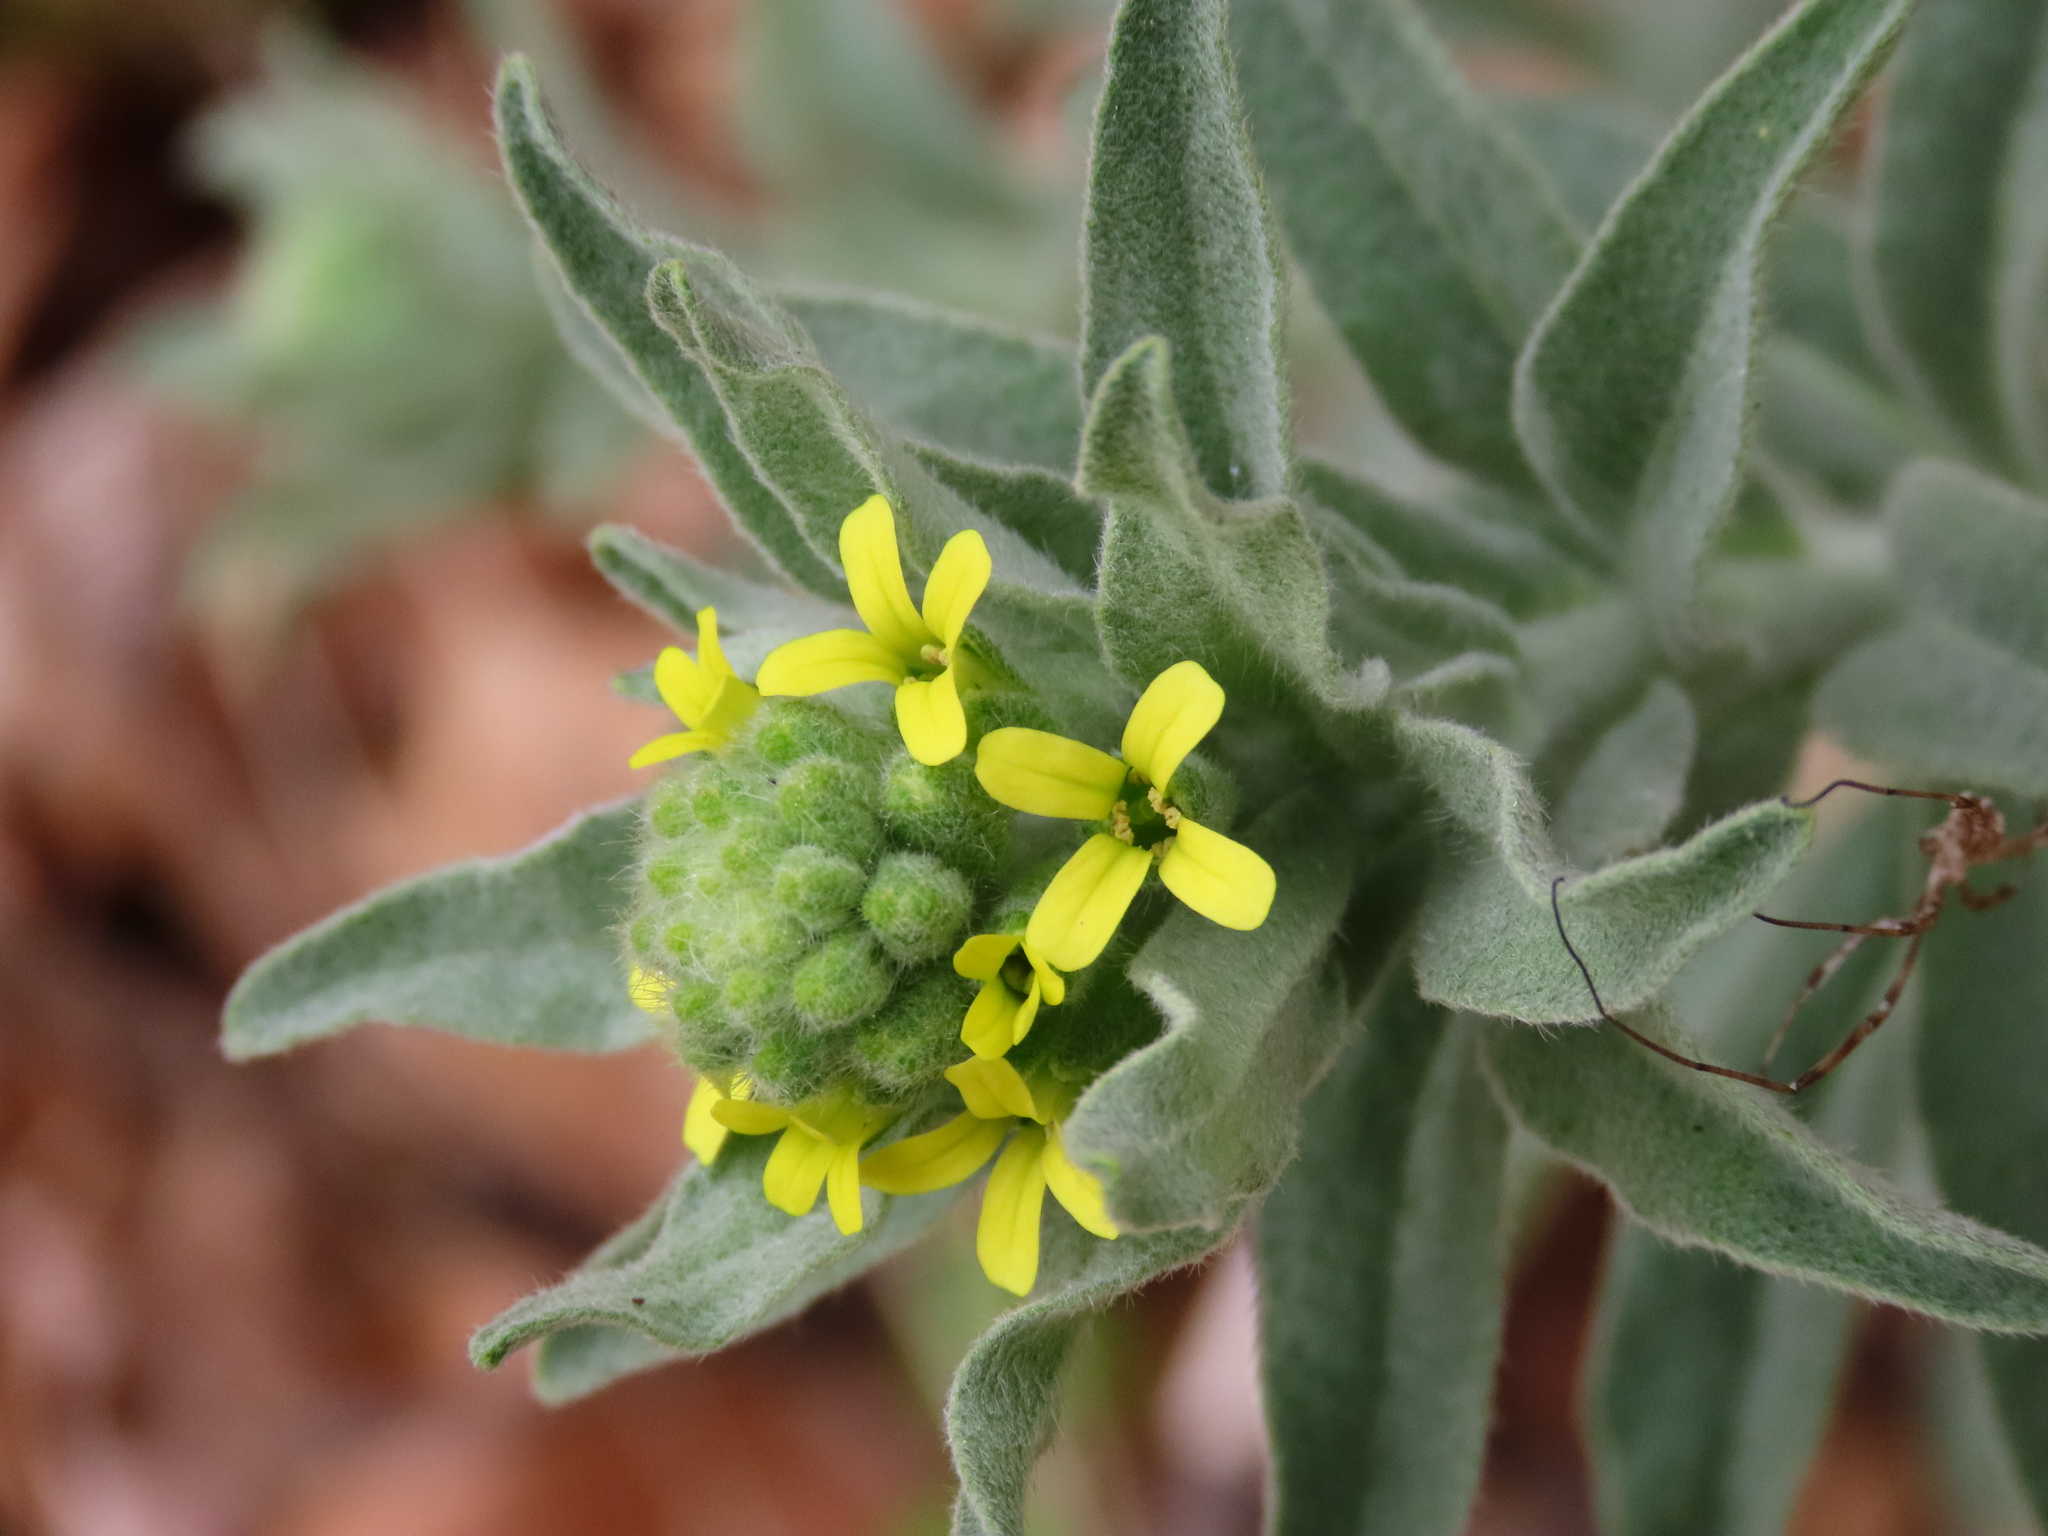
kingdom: Plantae
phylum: Tracheophyta
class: Magnoliopsida
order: Brassicales
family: Brassicaceae
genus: Fibigia
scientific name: Fibigia clypeata
